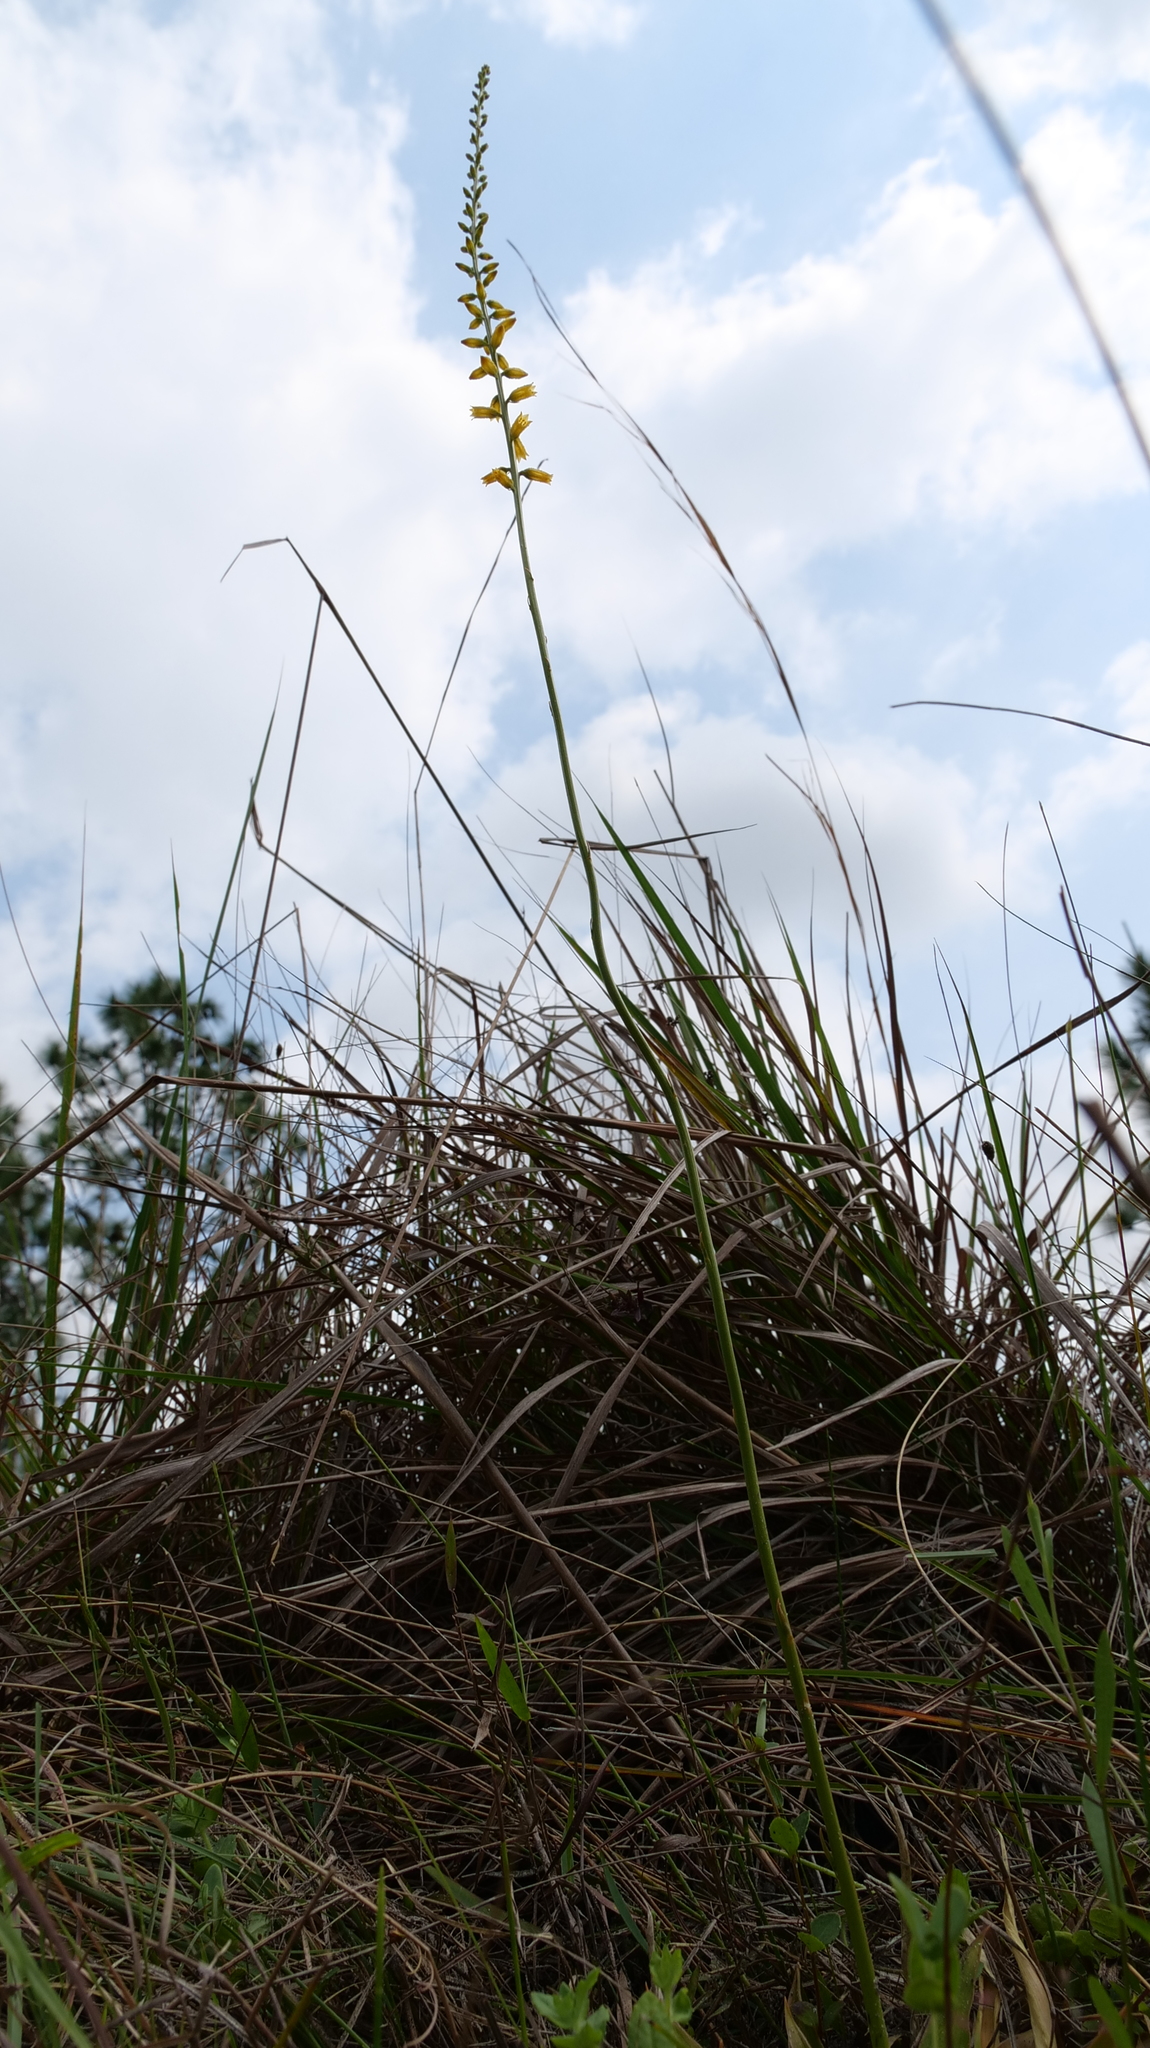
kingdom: Plantae
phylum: Tracheophyta
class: Liliopsida
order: Dioscoreales
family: Nartheciaceae
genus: Aletris
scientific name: Aletris lutea
